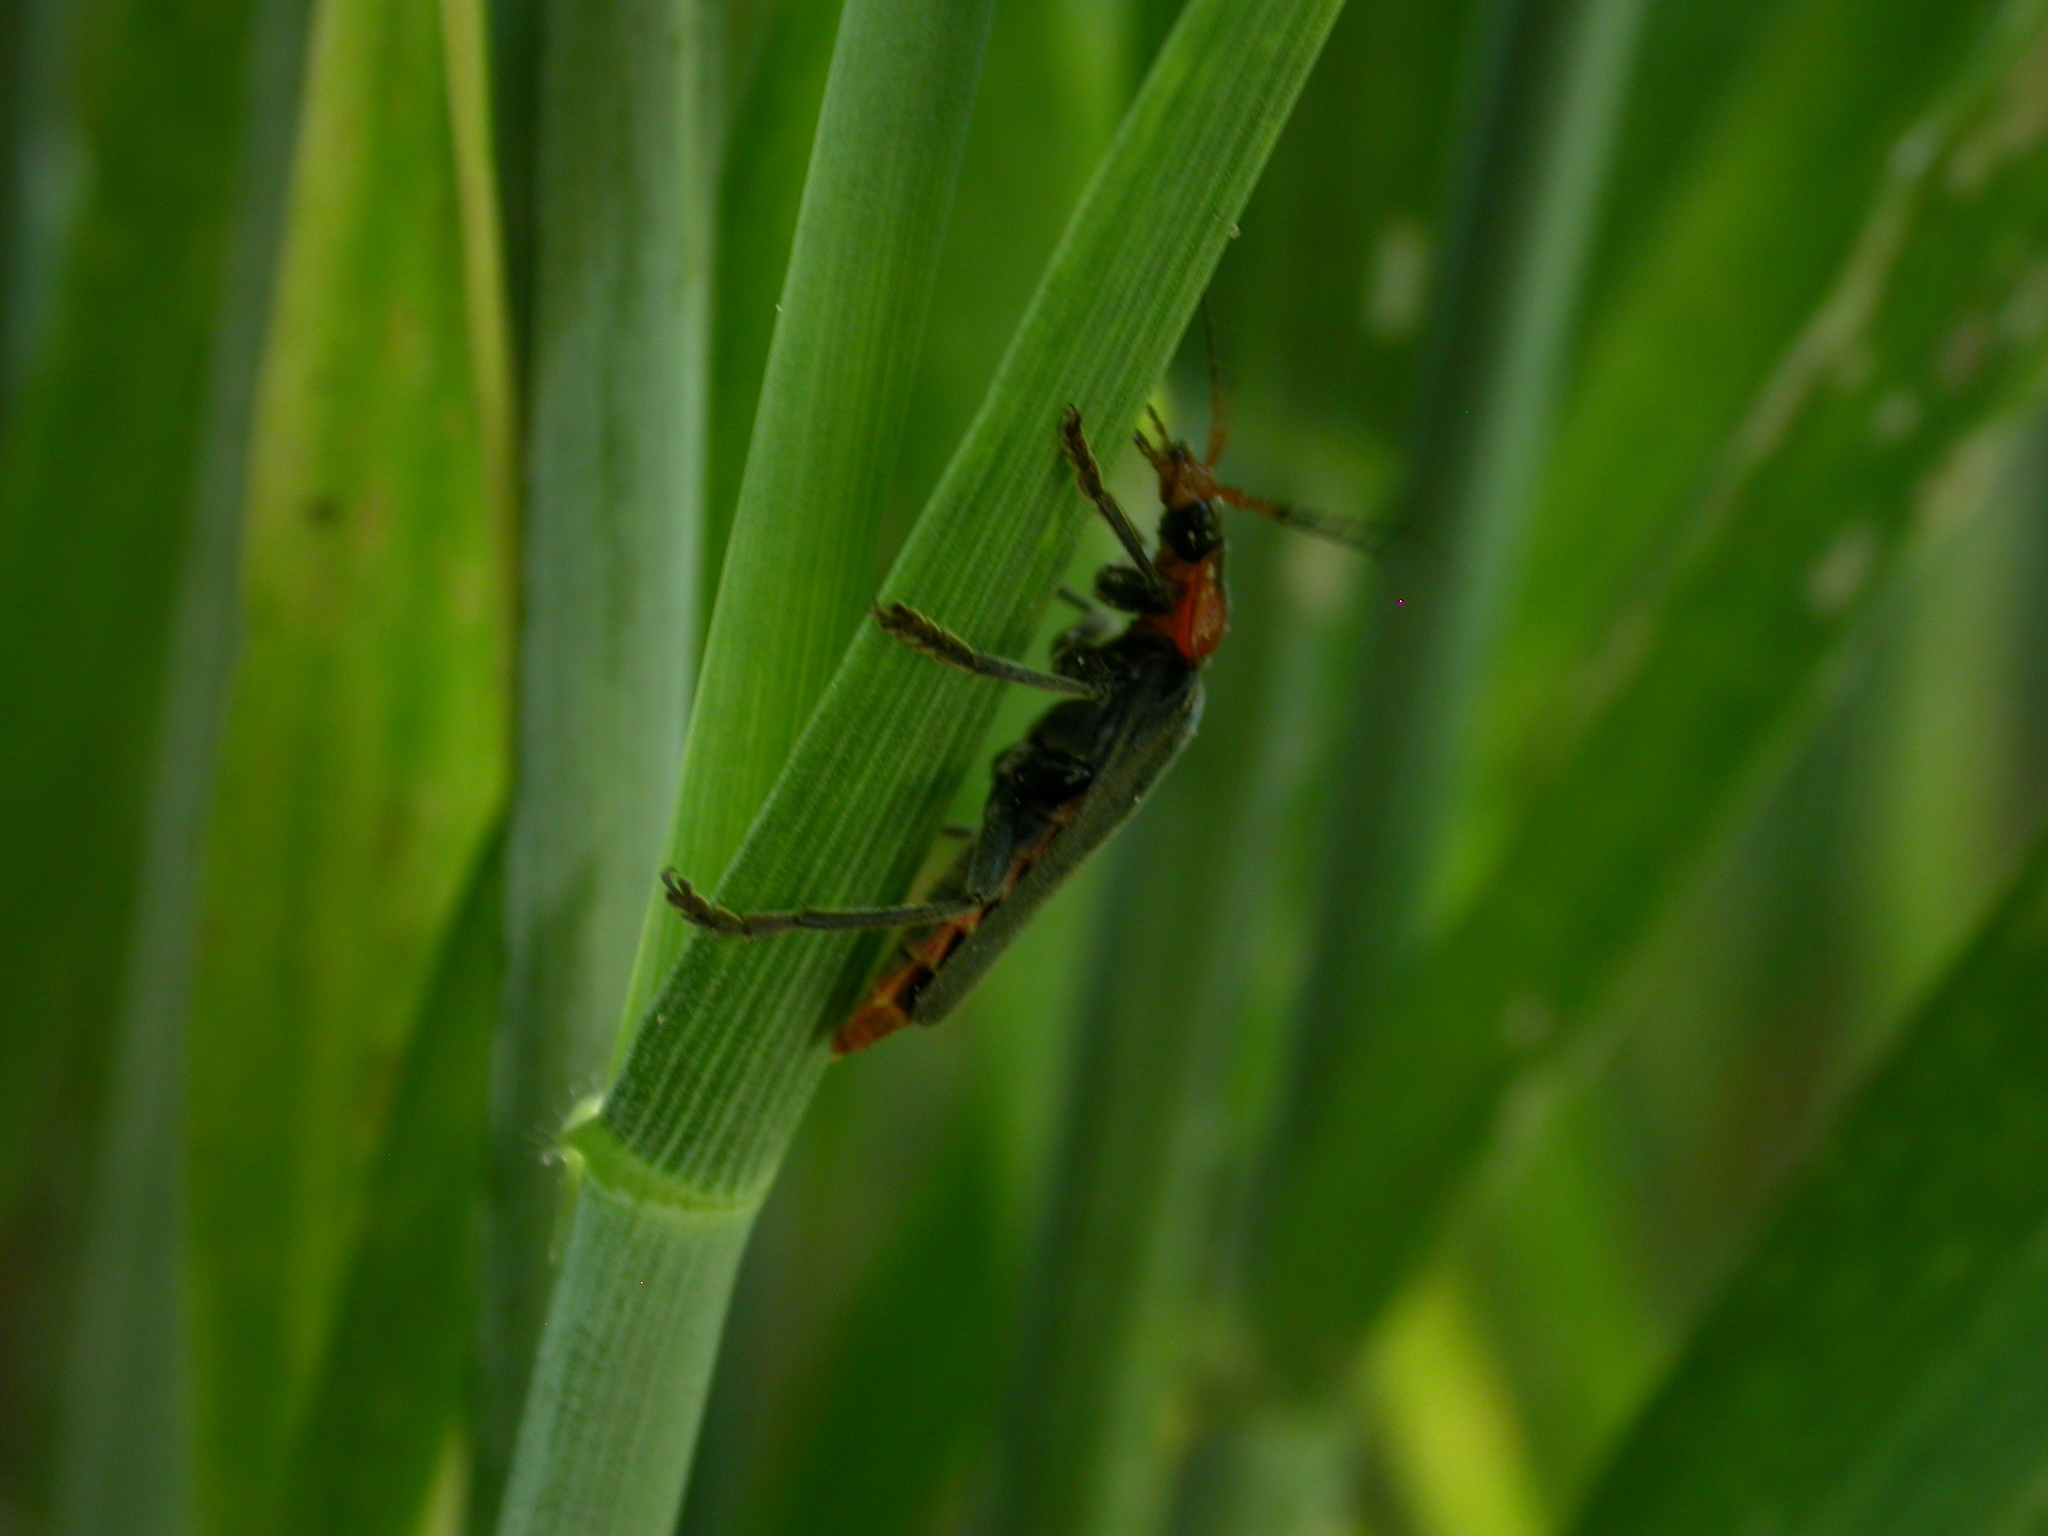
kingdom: Animalia
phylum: Arthropoda
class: Insecta
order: Coleoptera
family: Cantharidae
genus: Cantharis
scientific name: Cantharis fusca
